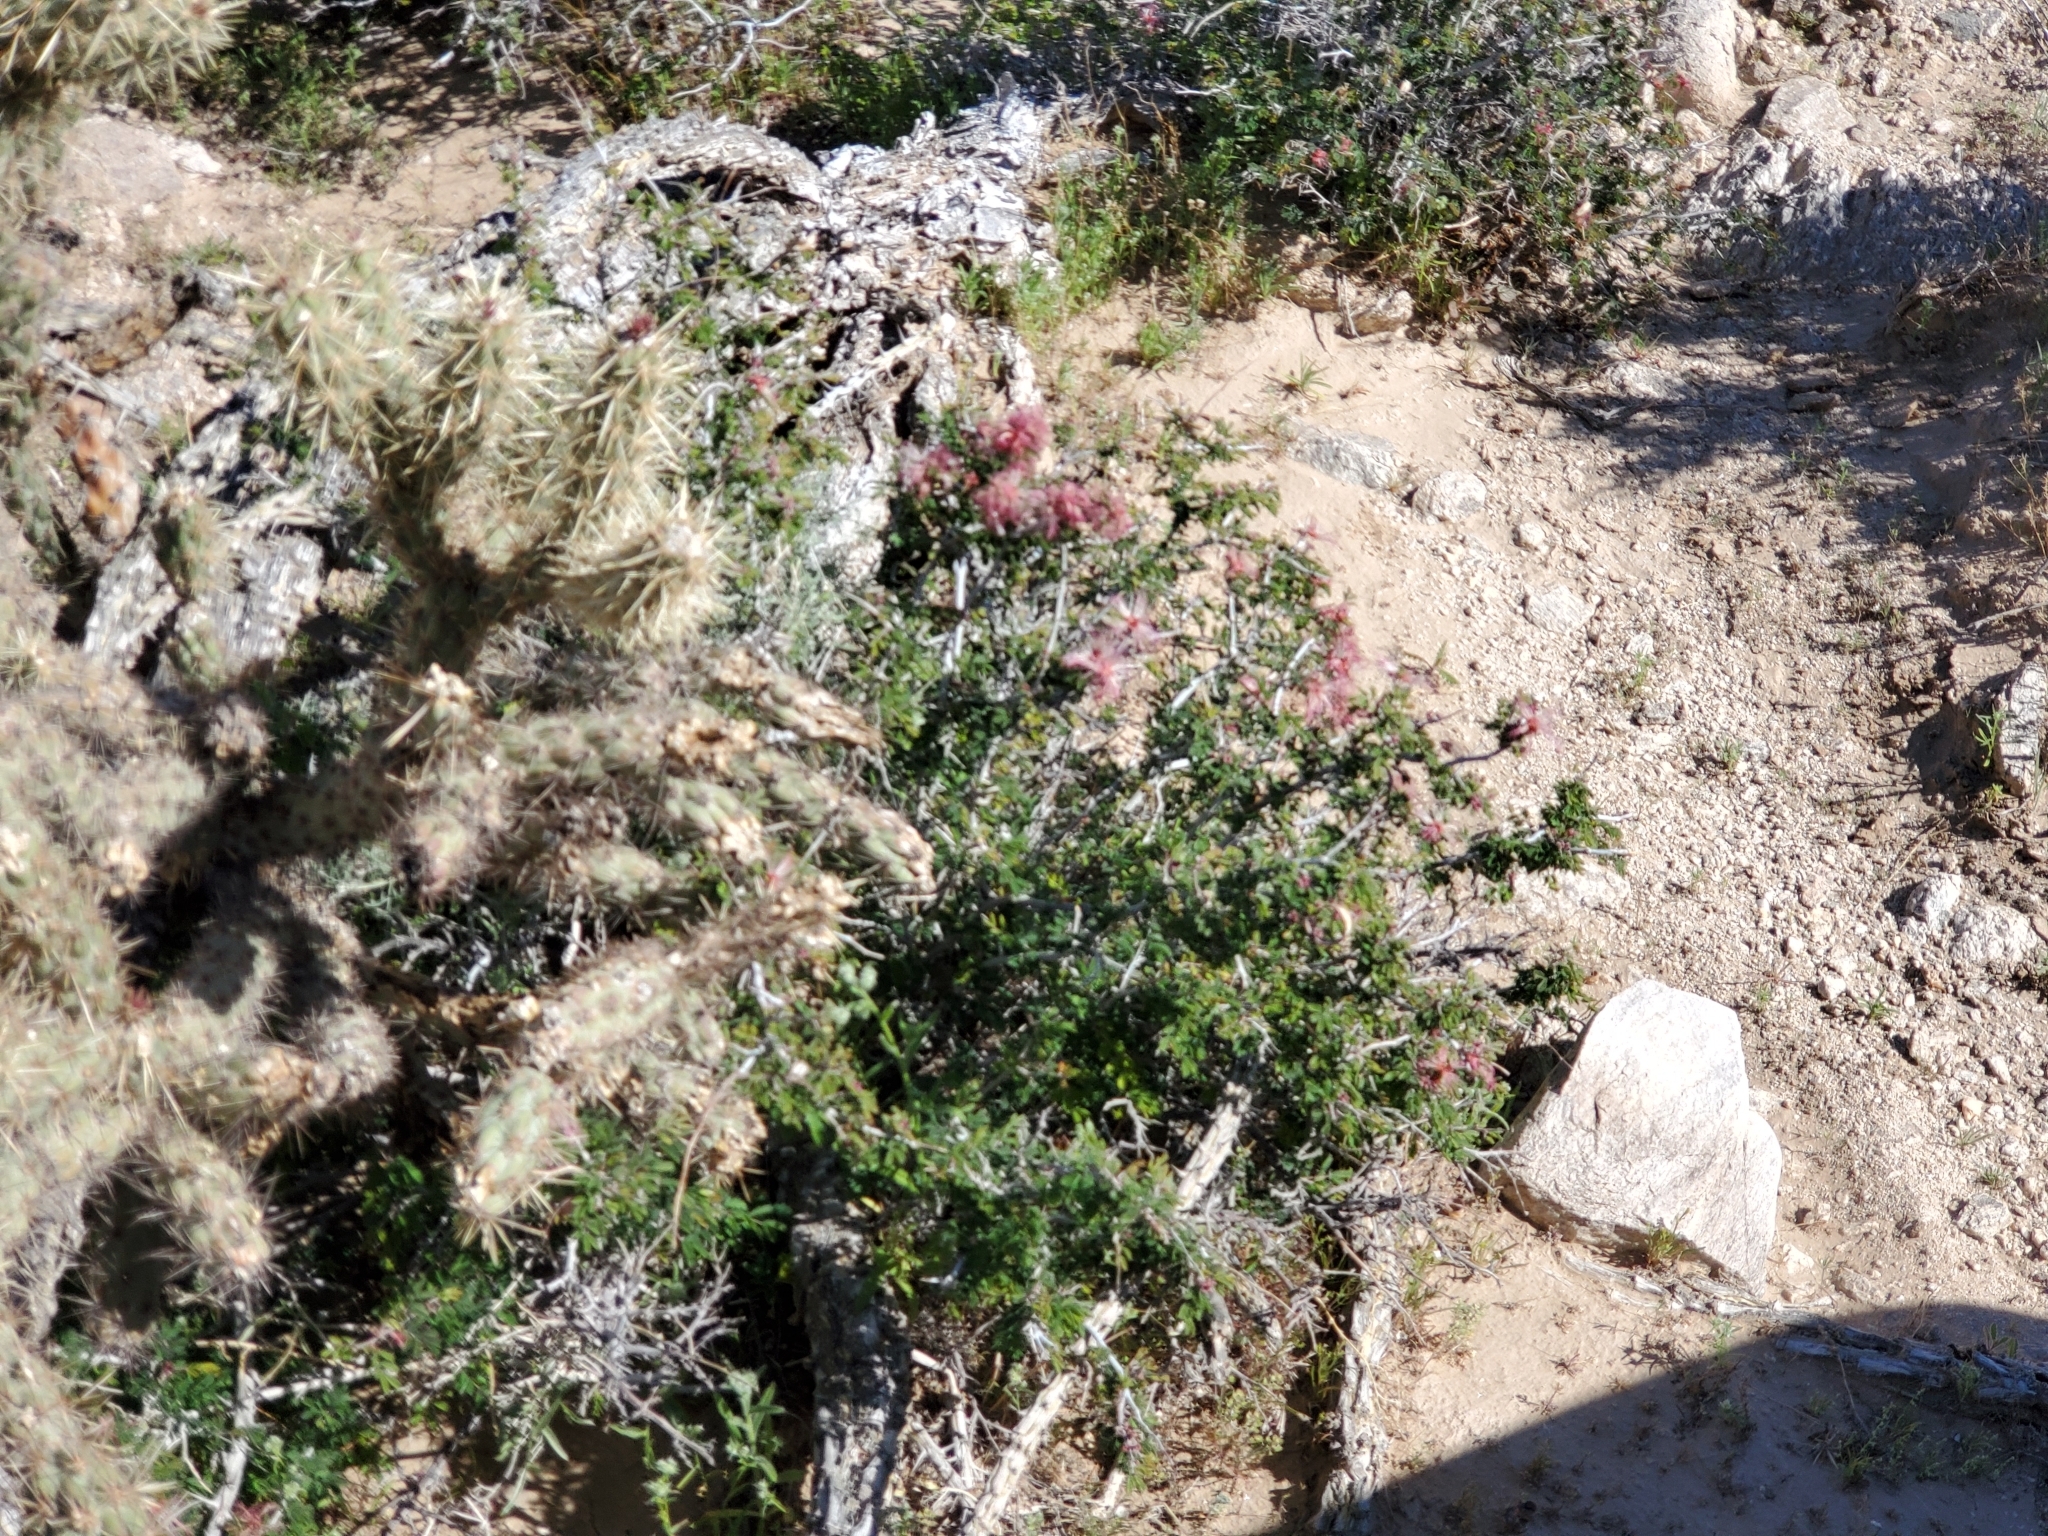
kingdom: Plantae
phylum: Tracheophyta
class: Magnoliopsida
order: Fabales
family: Fabaceae
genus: Calliandra
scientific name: Calliandra eriophylla
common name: Fairy-duster
